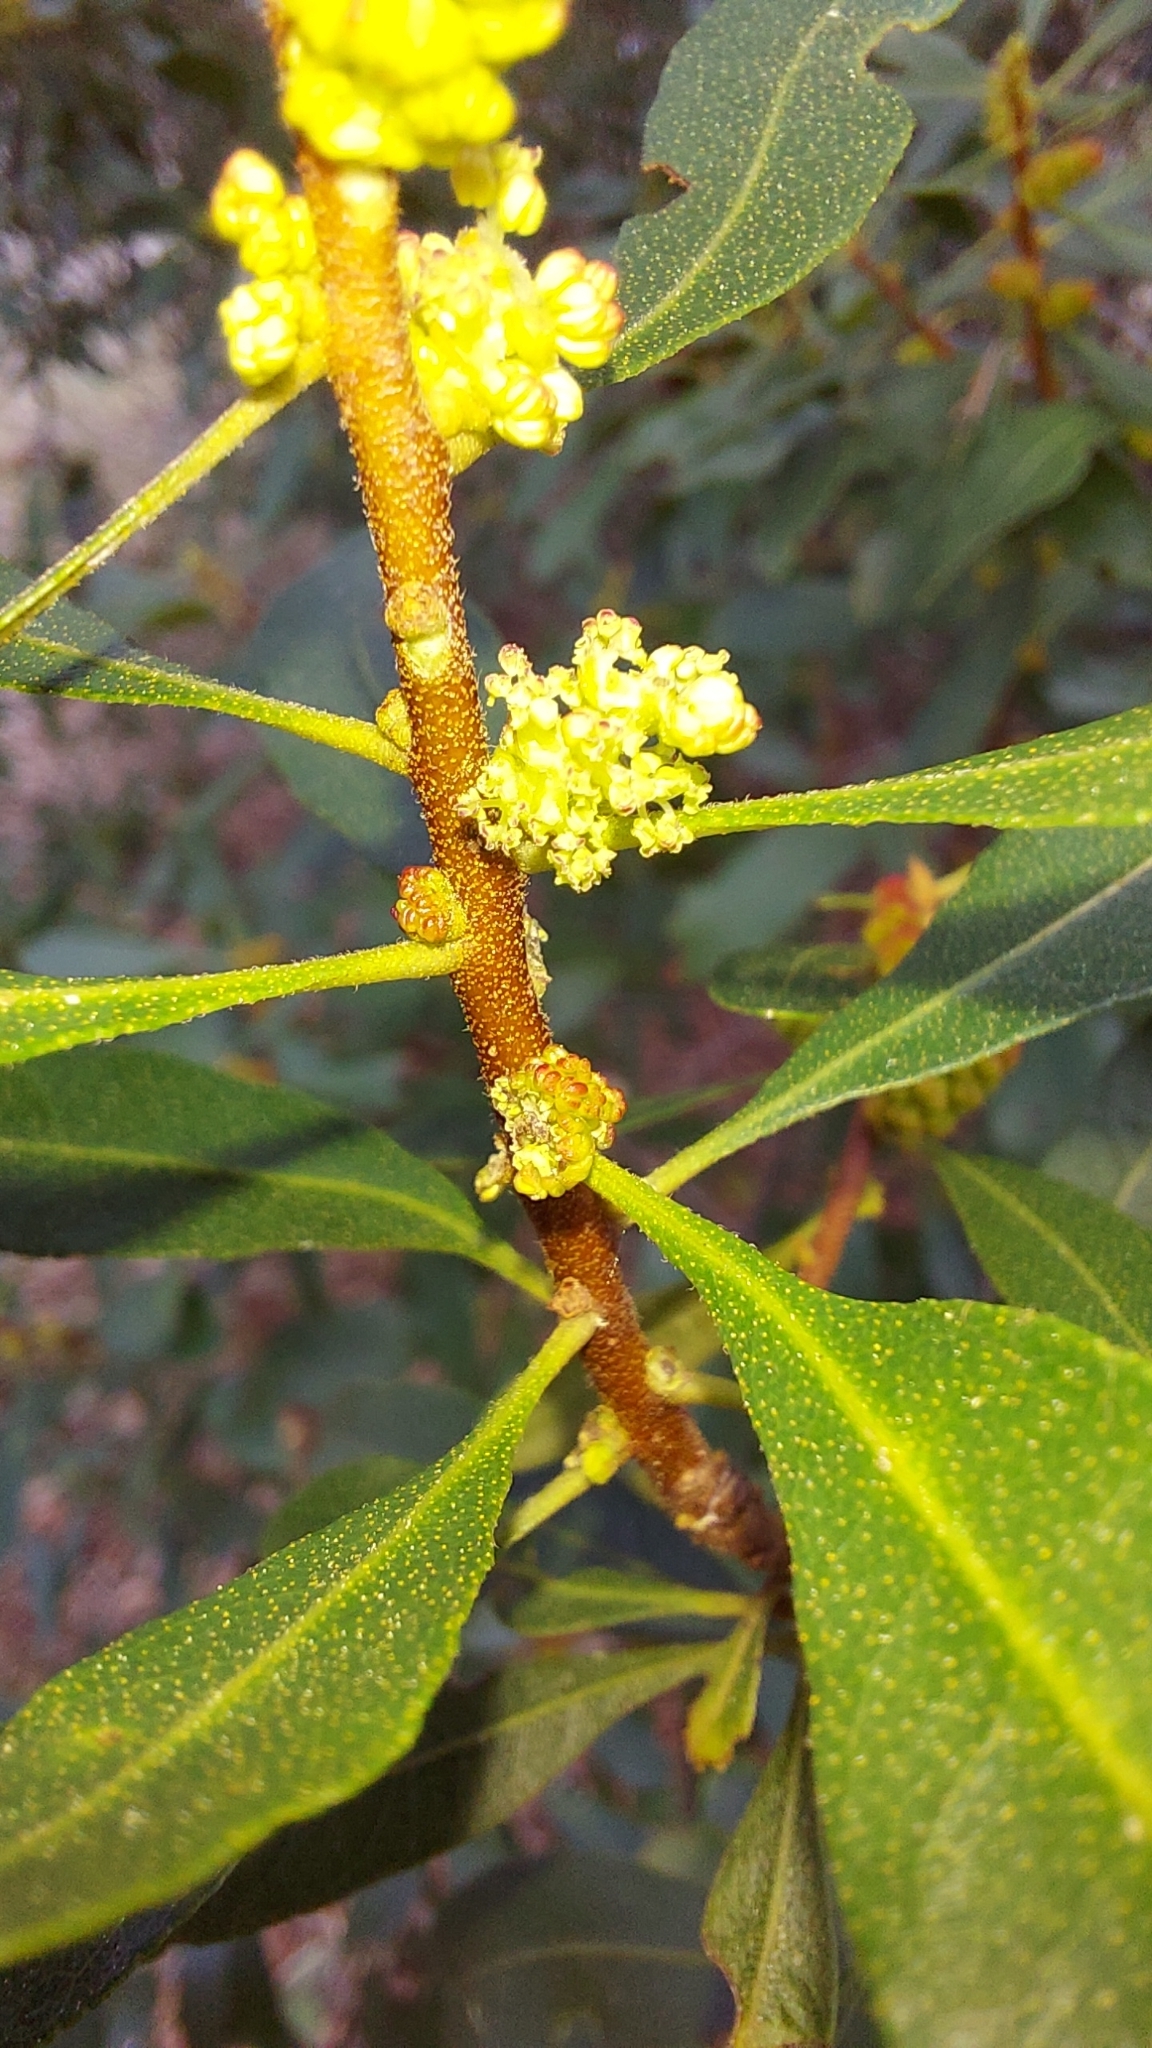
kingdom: Plantae
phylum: Tracheophyta
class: Magnoliopsida
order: Fagales
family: Myricaceae
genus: Morella
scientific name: Morella cerifera
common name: Wax myrtle
